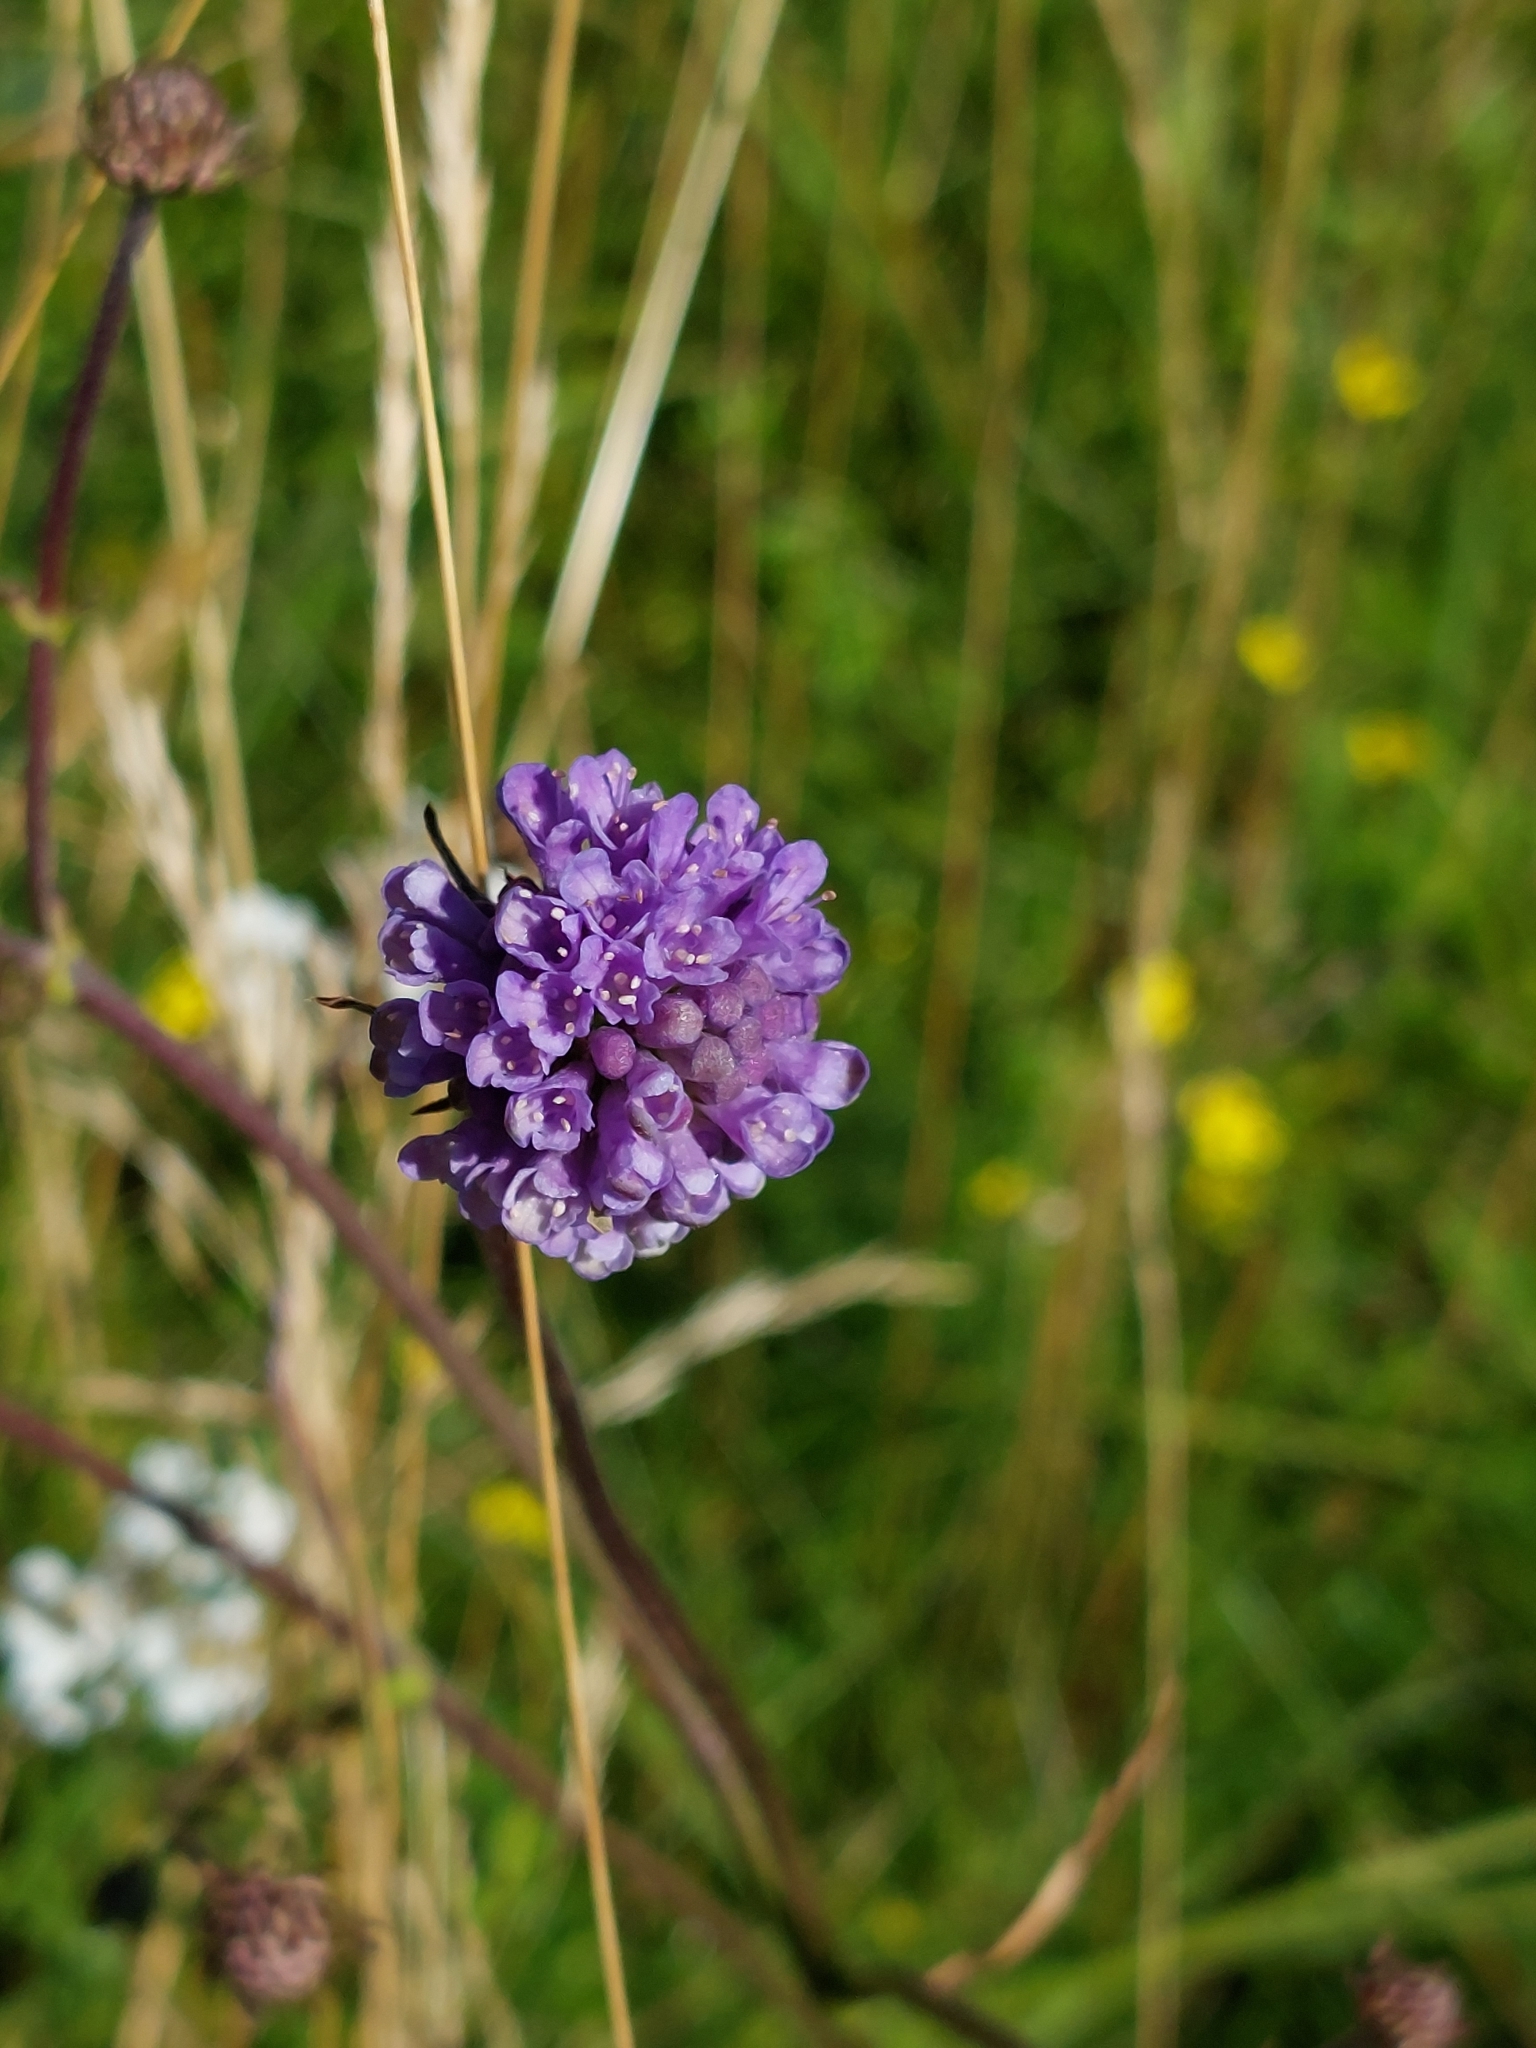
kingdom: Plantae
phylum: Tracheophyta
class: Magnoliopsida
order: Dipsacales
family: Caprifoliaceae
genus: Succisa
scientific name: Succisa pratensis
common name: Devil's-bit
